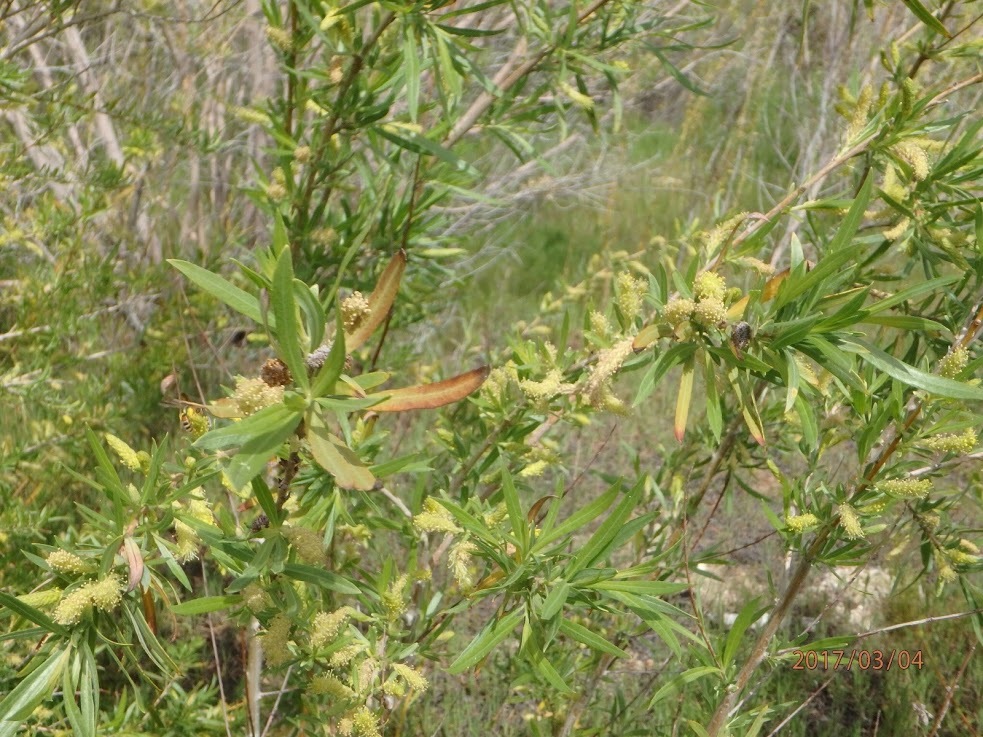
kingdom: Plantae
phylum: Tracheophyta
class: Magnoliopsida
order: Malpighiales
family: Salicaceae
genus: Salix
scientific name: Salix exigua
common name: Coyote willow
